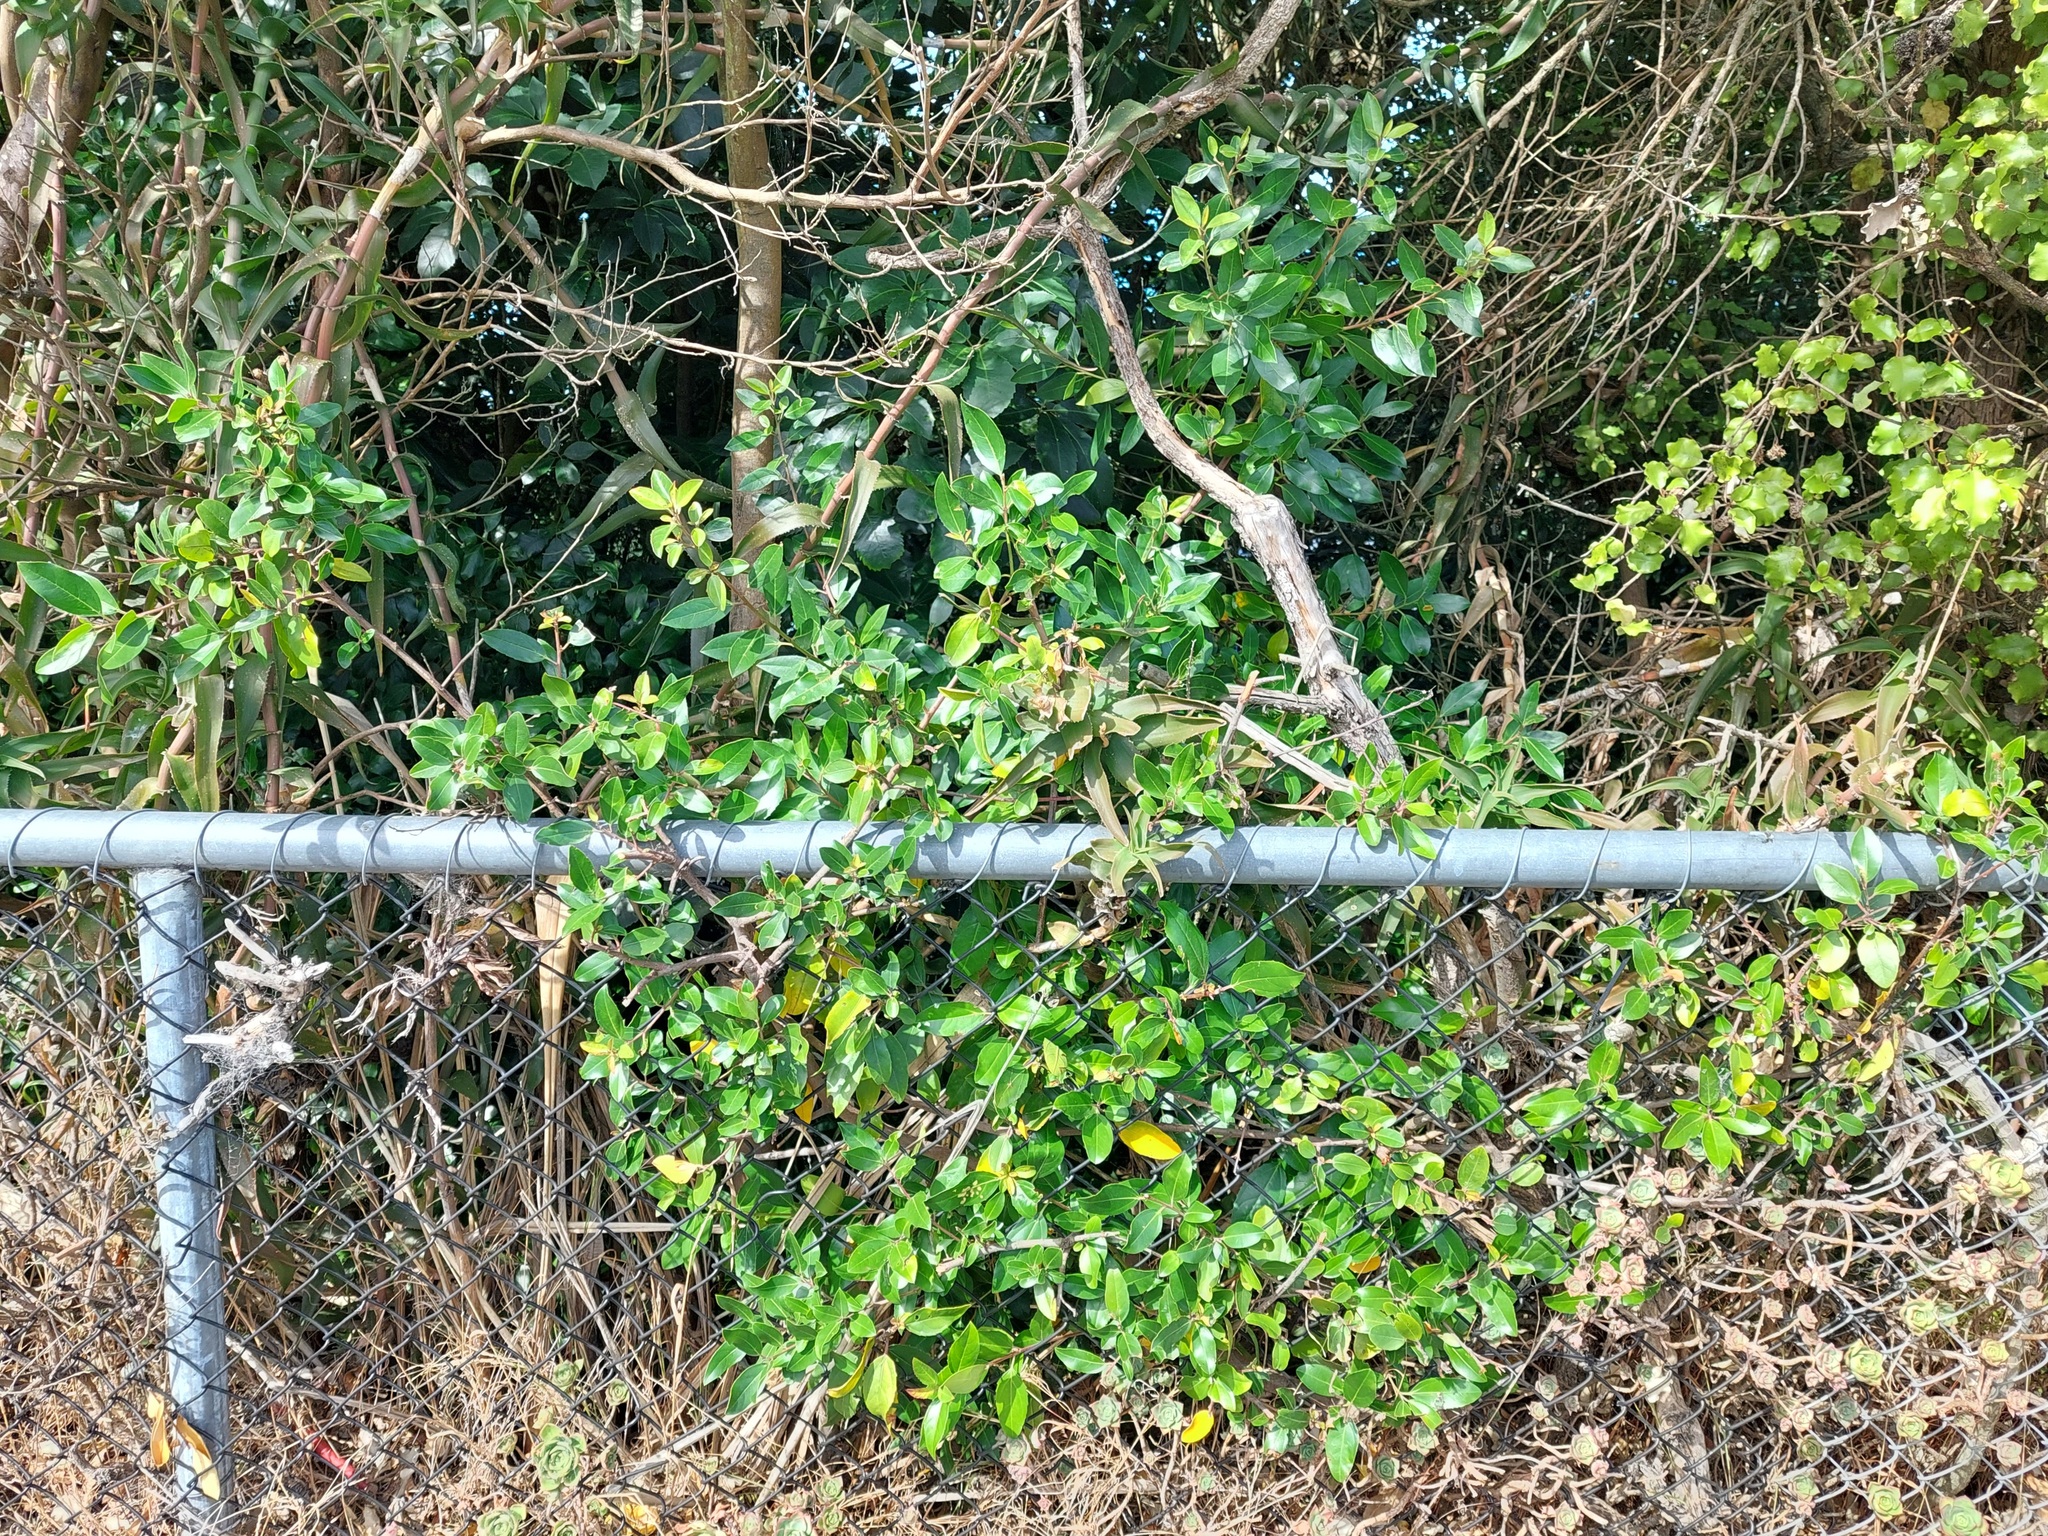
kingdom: Plantae
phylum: Tracheophyta
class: Magnoliopsida
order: Rosales
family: Rhamnaceae
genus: Rhamnus
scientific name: Rhamnus alaternus
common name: Mediterranean buckthorn
